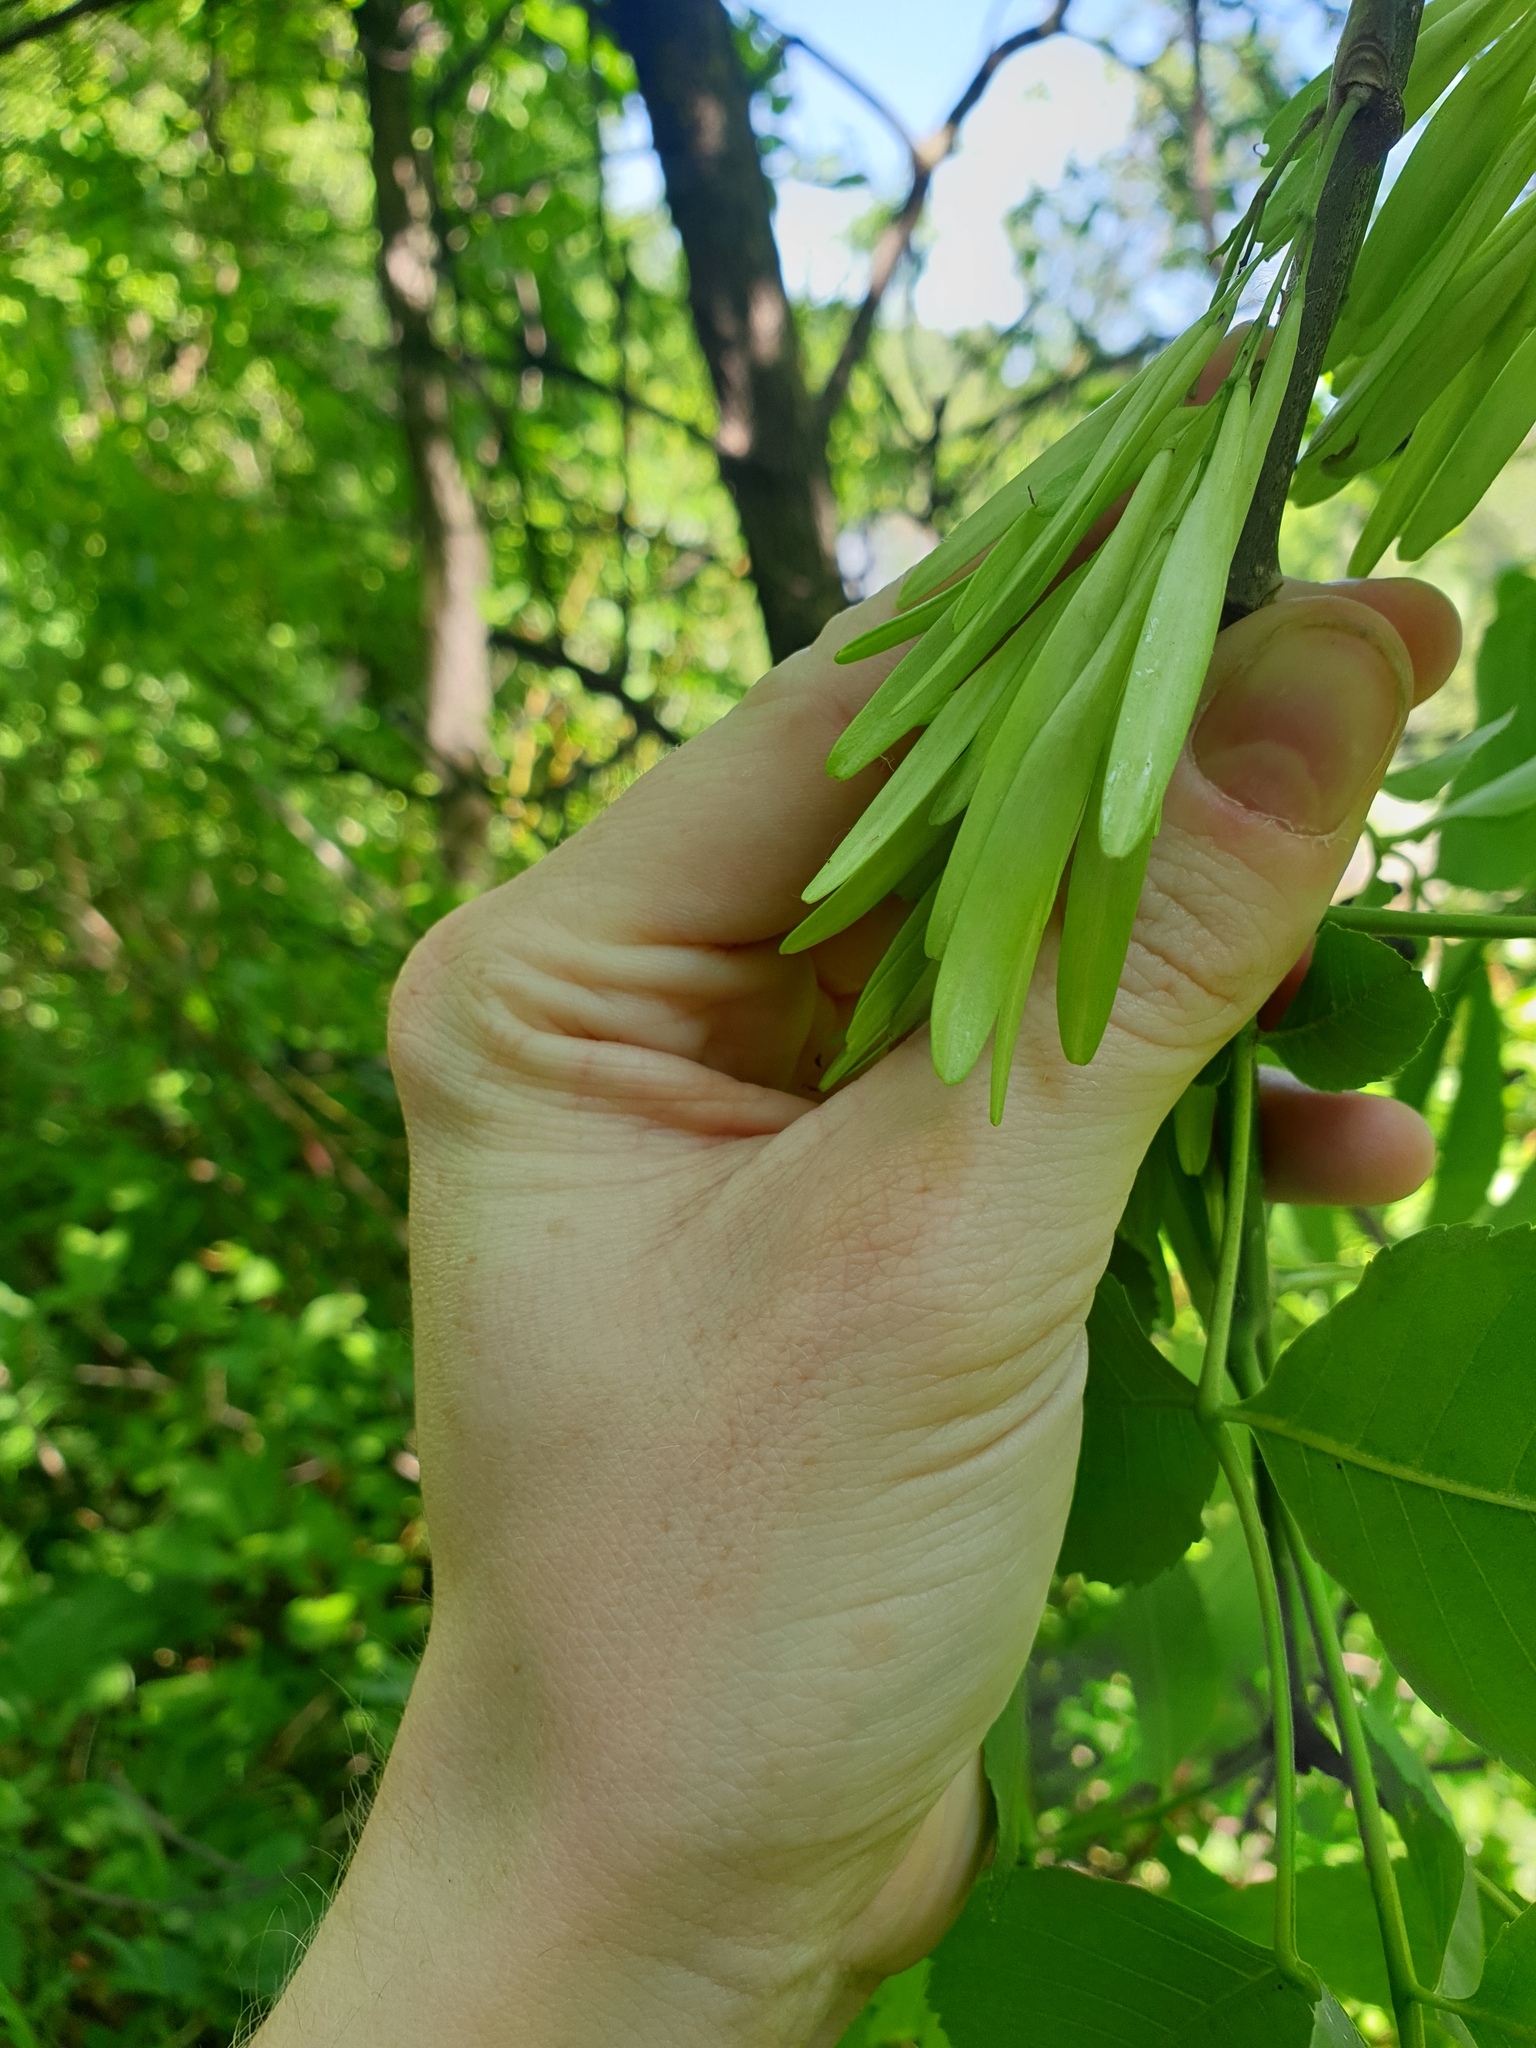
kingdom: Plantae
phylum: Tracheophyta
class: Magnoliopsida
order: Lamiales
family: Oleaceae
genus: Fraxinus
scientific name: Fraxinus pennsylvanica
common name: Green ash
